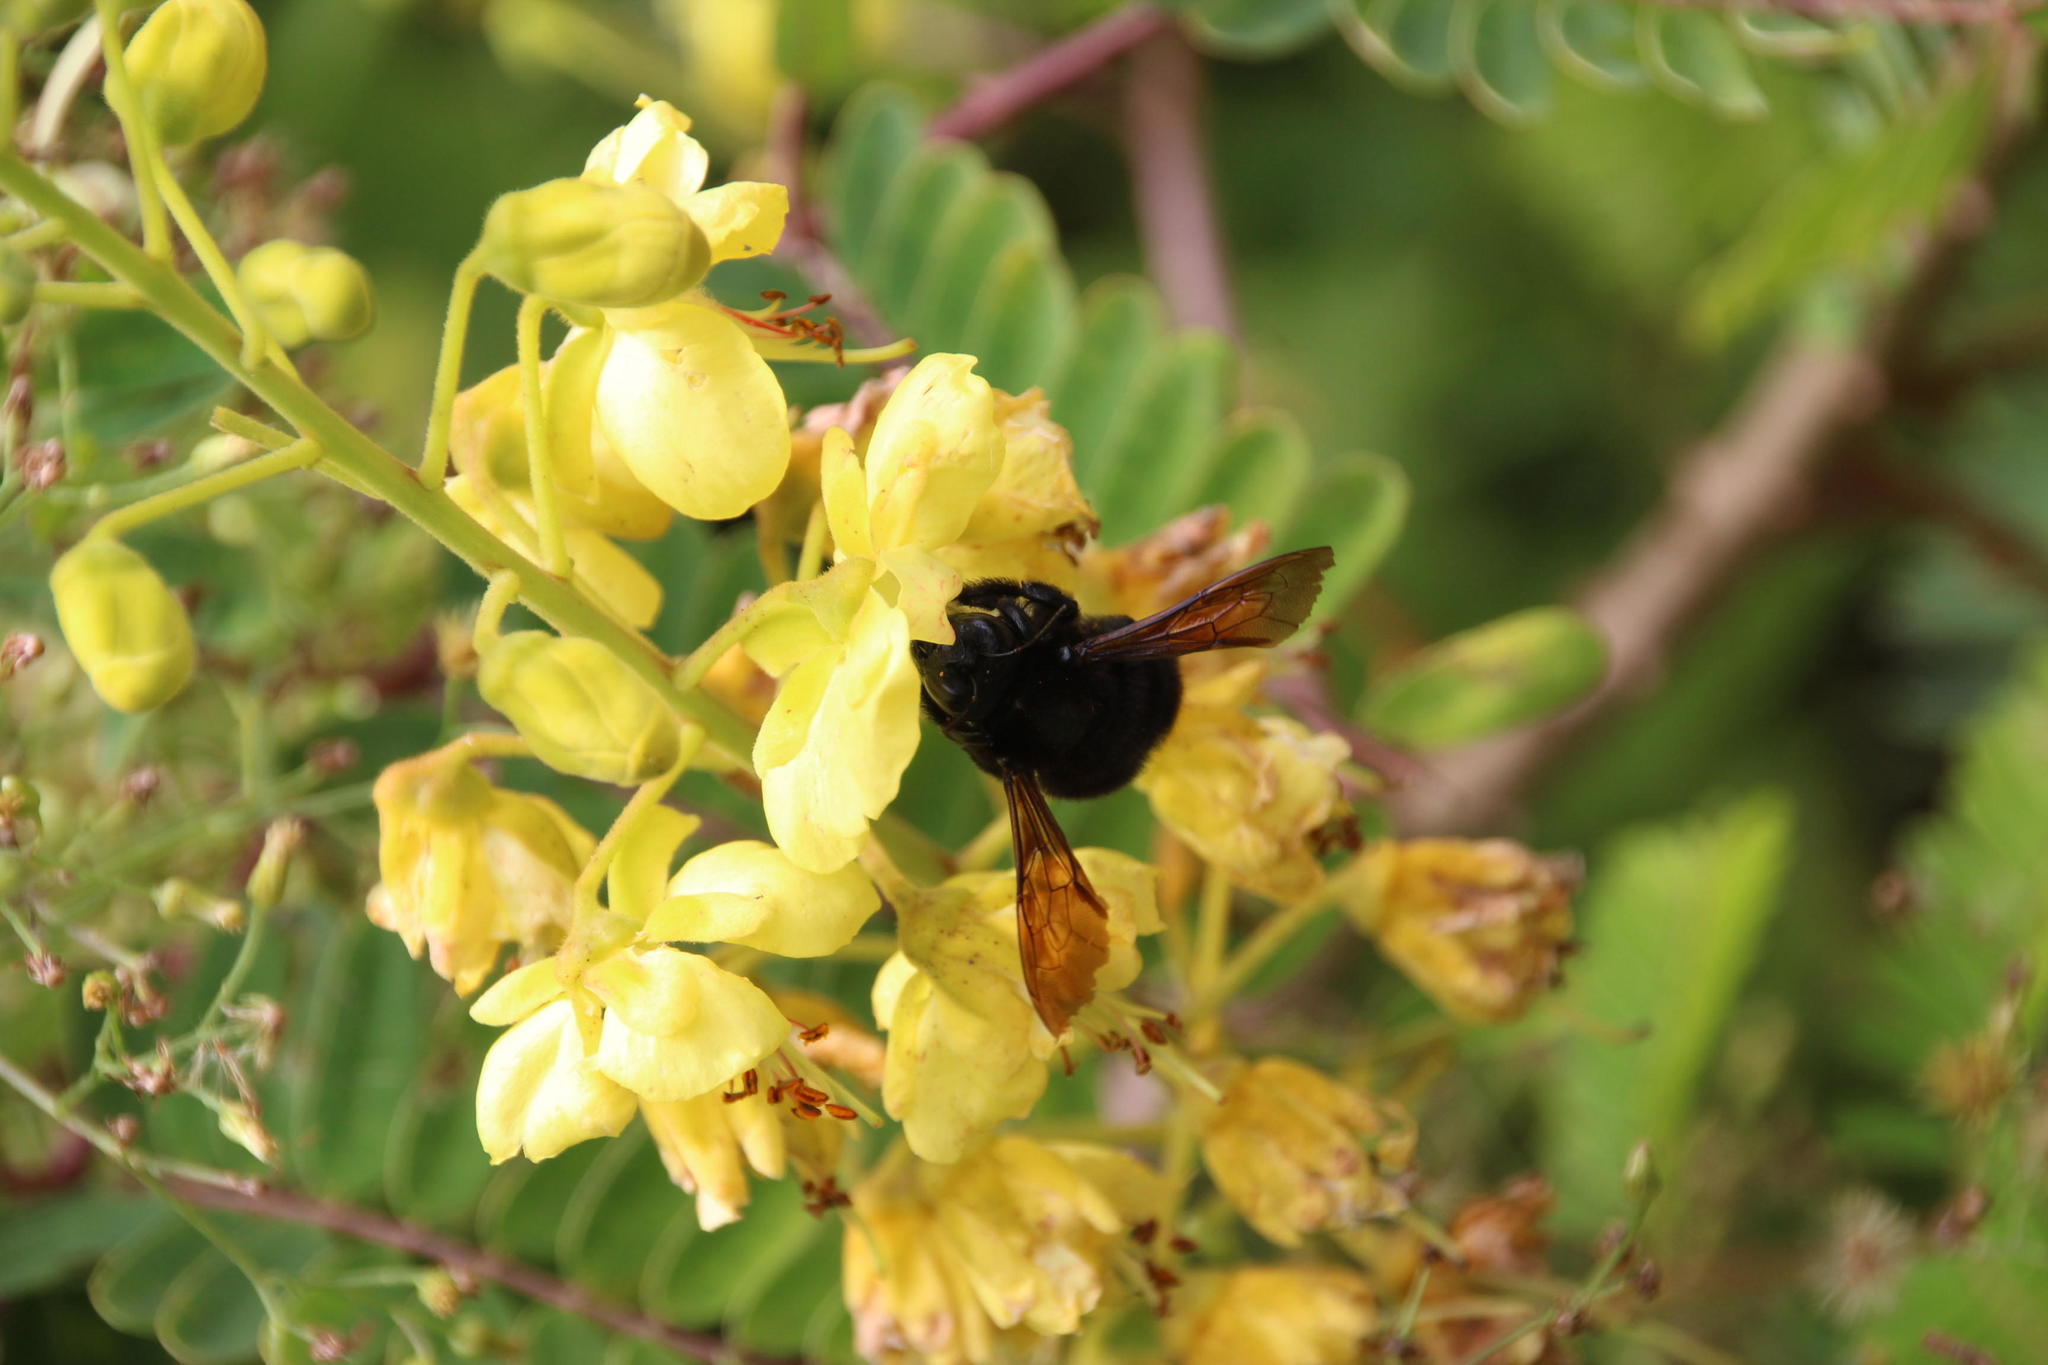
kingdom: Plantae
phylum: Tracheophyta
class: Magnoliopsida
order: Fabales
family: Fabaceae
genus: Biancaea
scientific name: Biancaea decapetala
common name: Cat's claw
